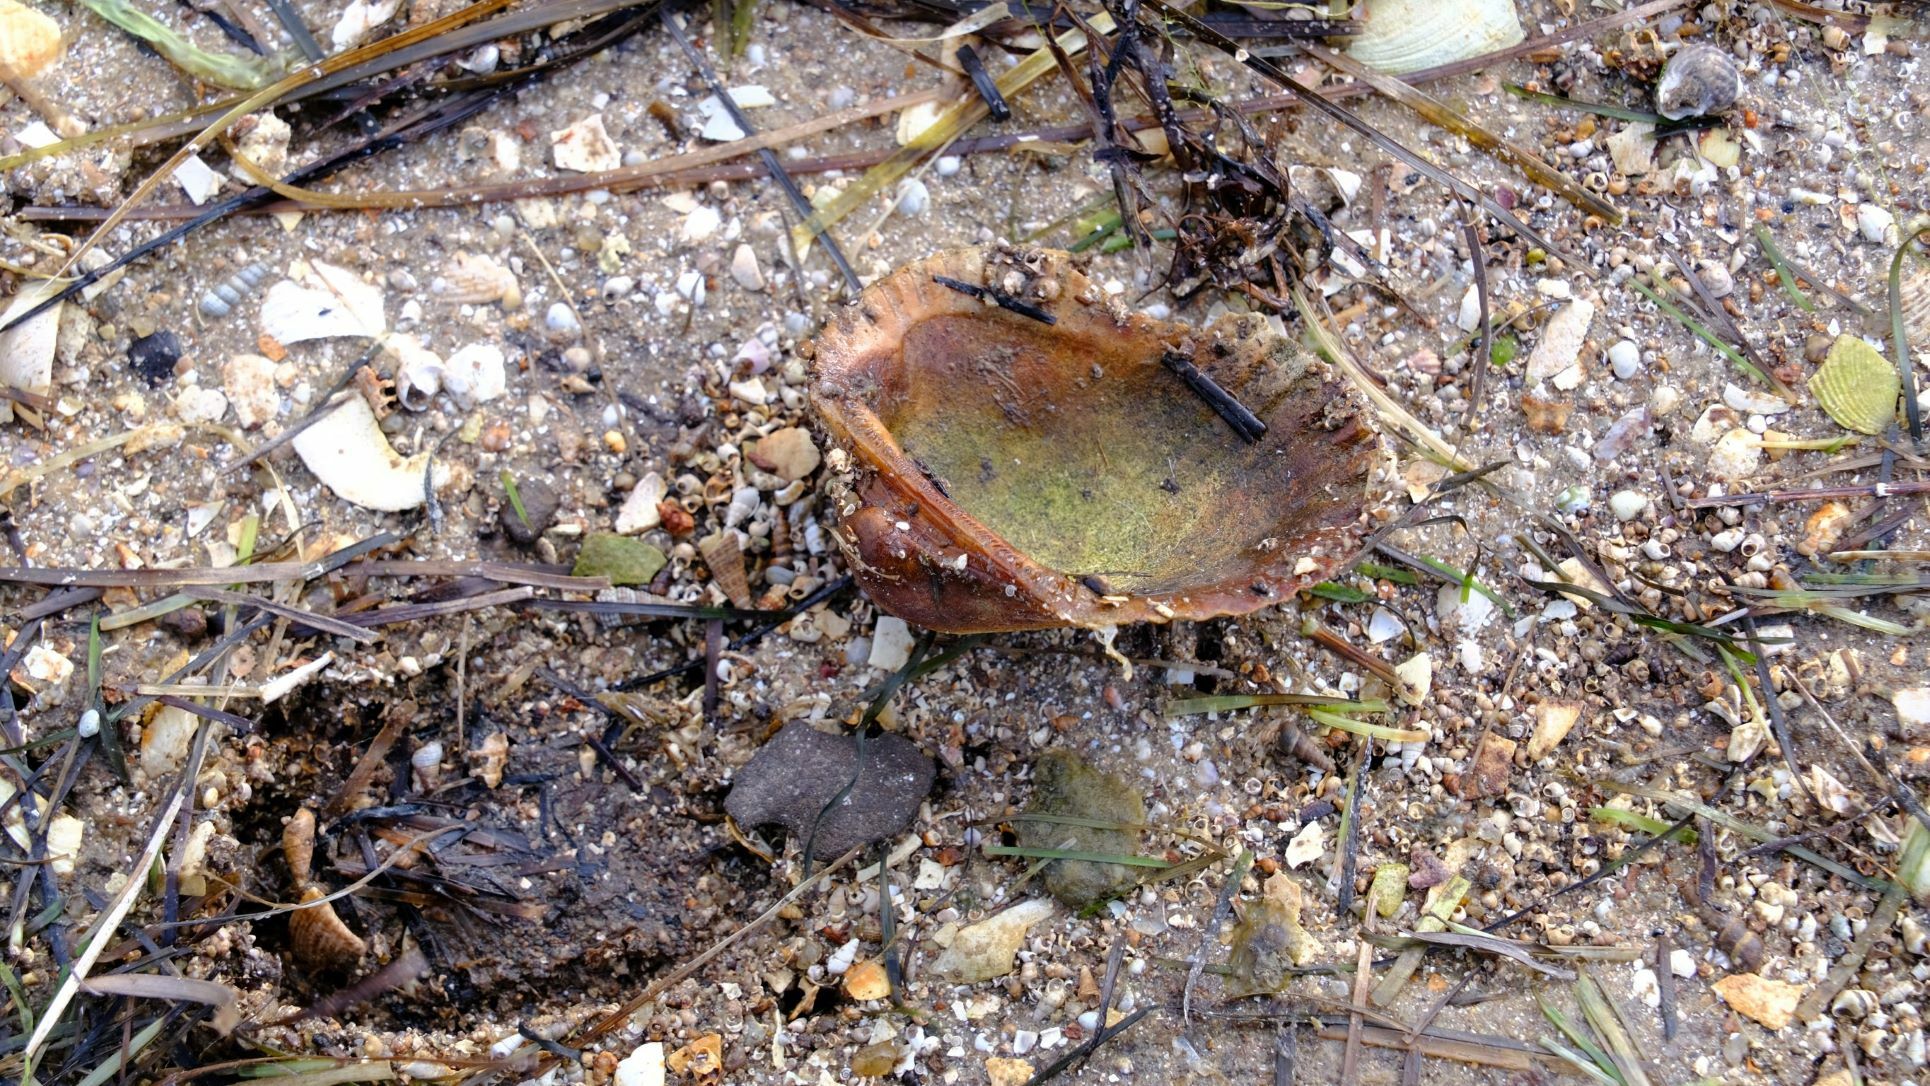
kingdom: Animalia
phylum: Mollusca
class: Bivalvia
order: Arcida
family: Arcidae
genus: Anadara
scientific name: Anadara trapezia
